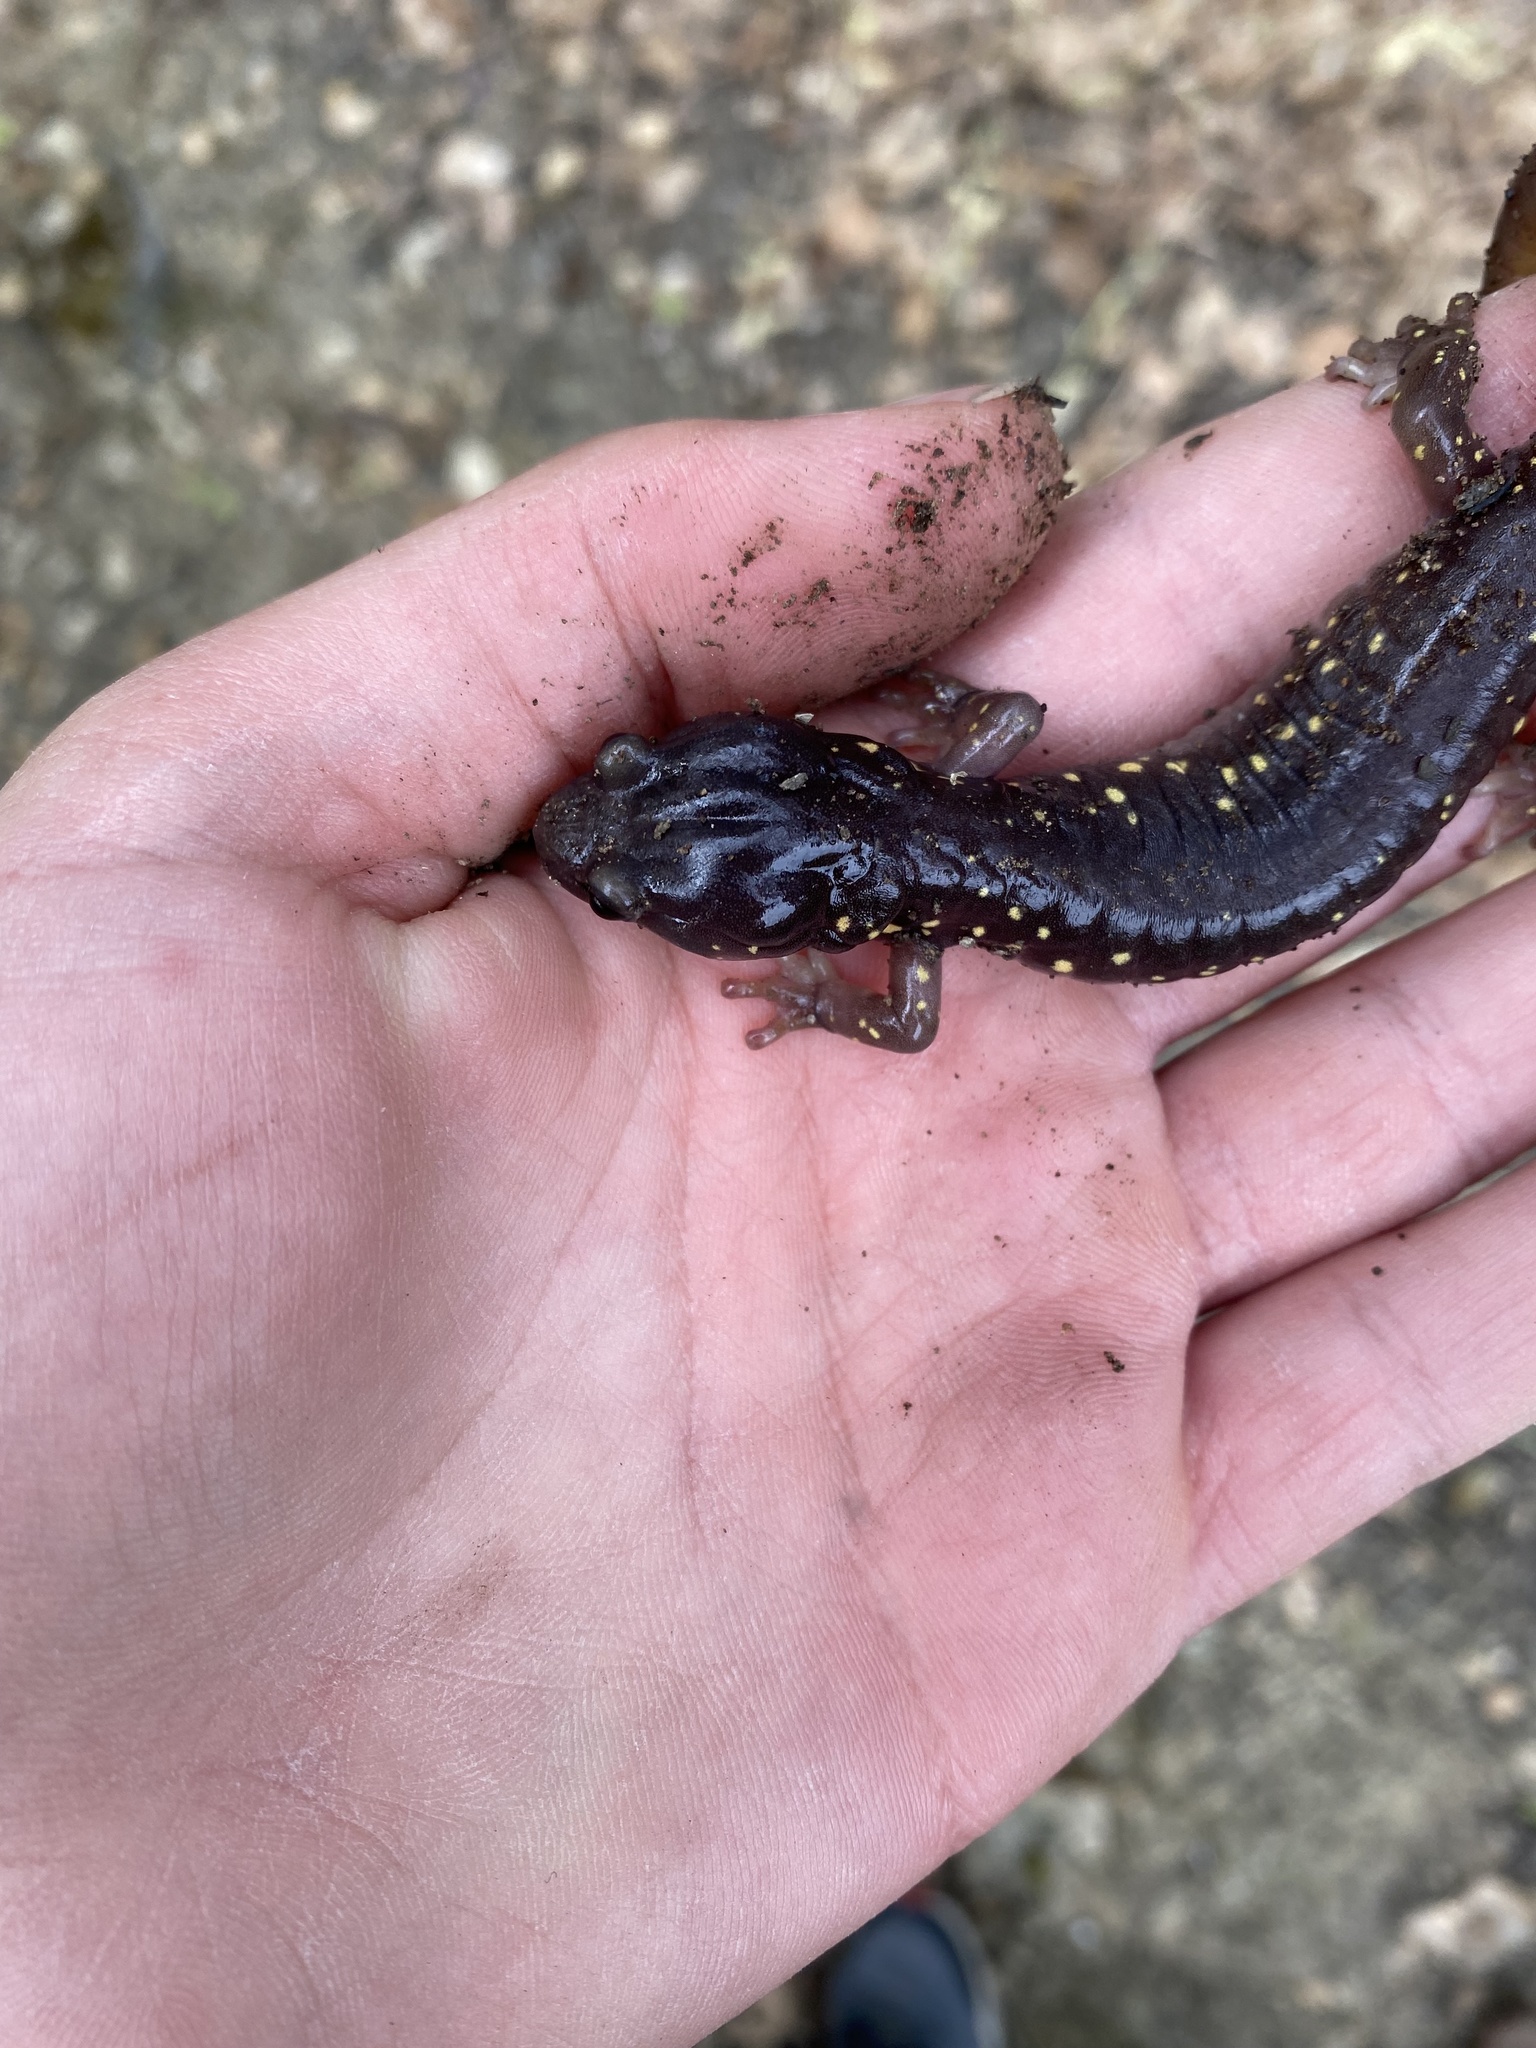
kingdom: Animalia
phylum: Chordata
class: Amphibia
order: Caudata
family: Plethodontidae
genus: Aneides
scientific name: Aneides lugubris
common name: Arboreal salamander
